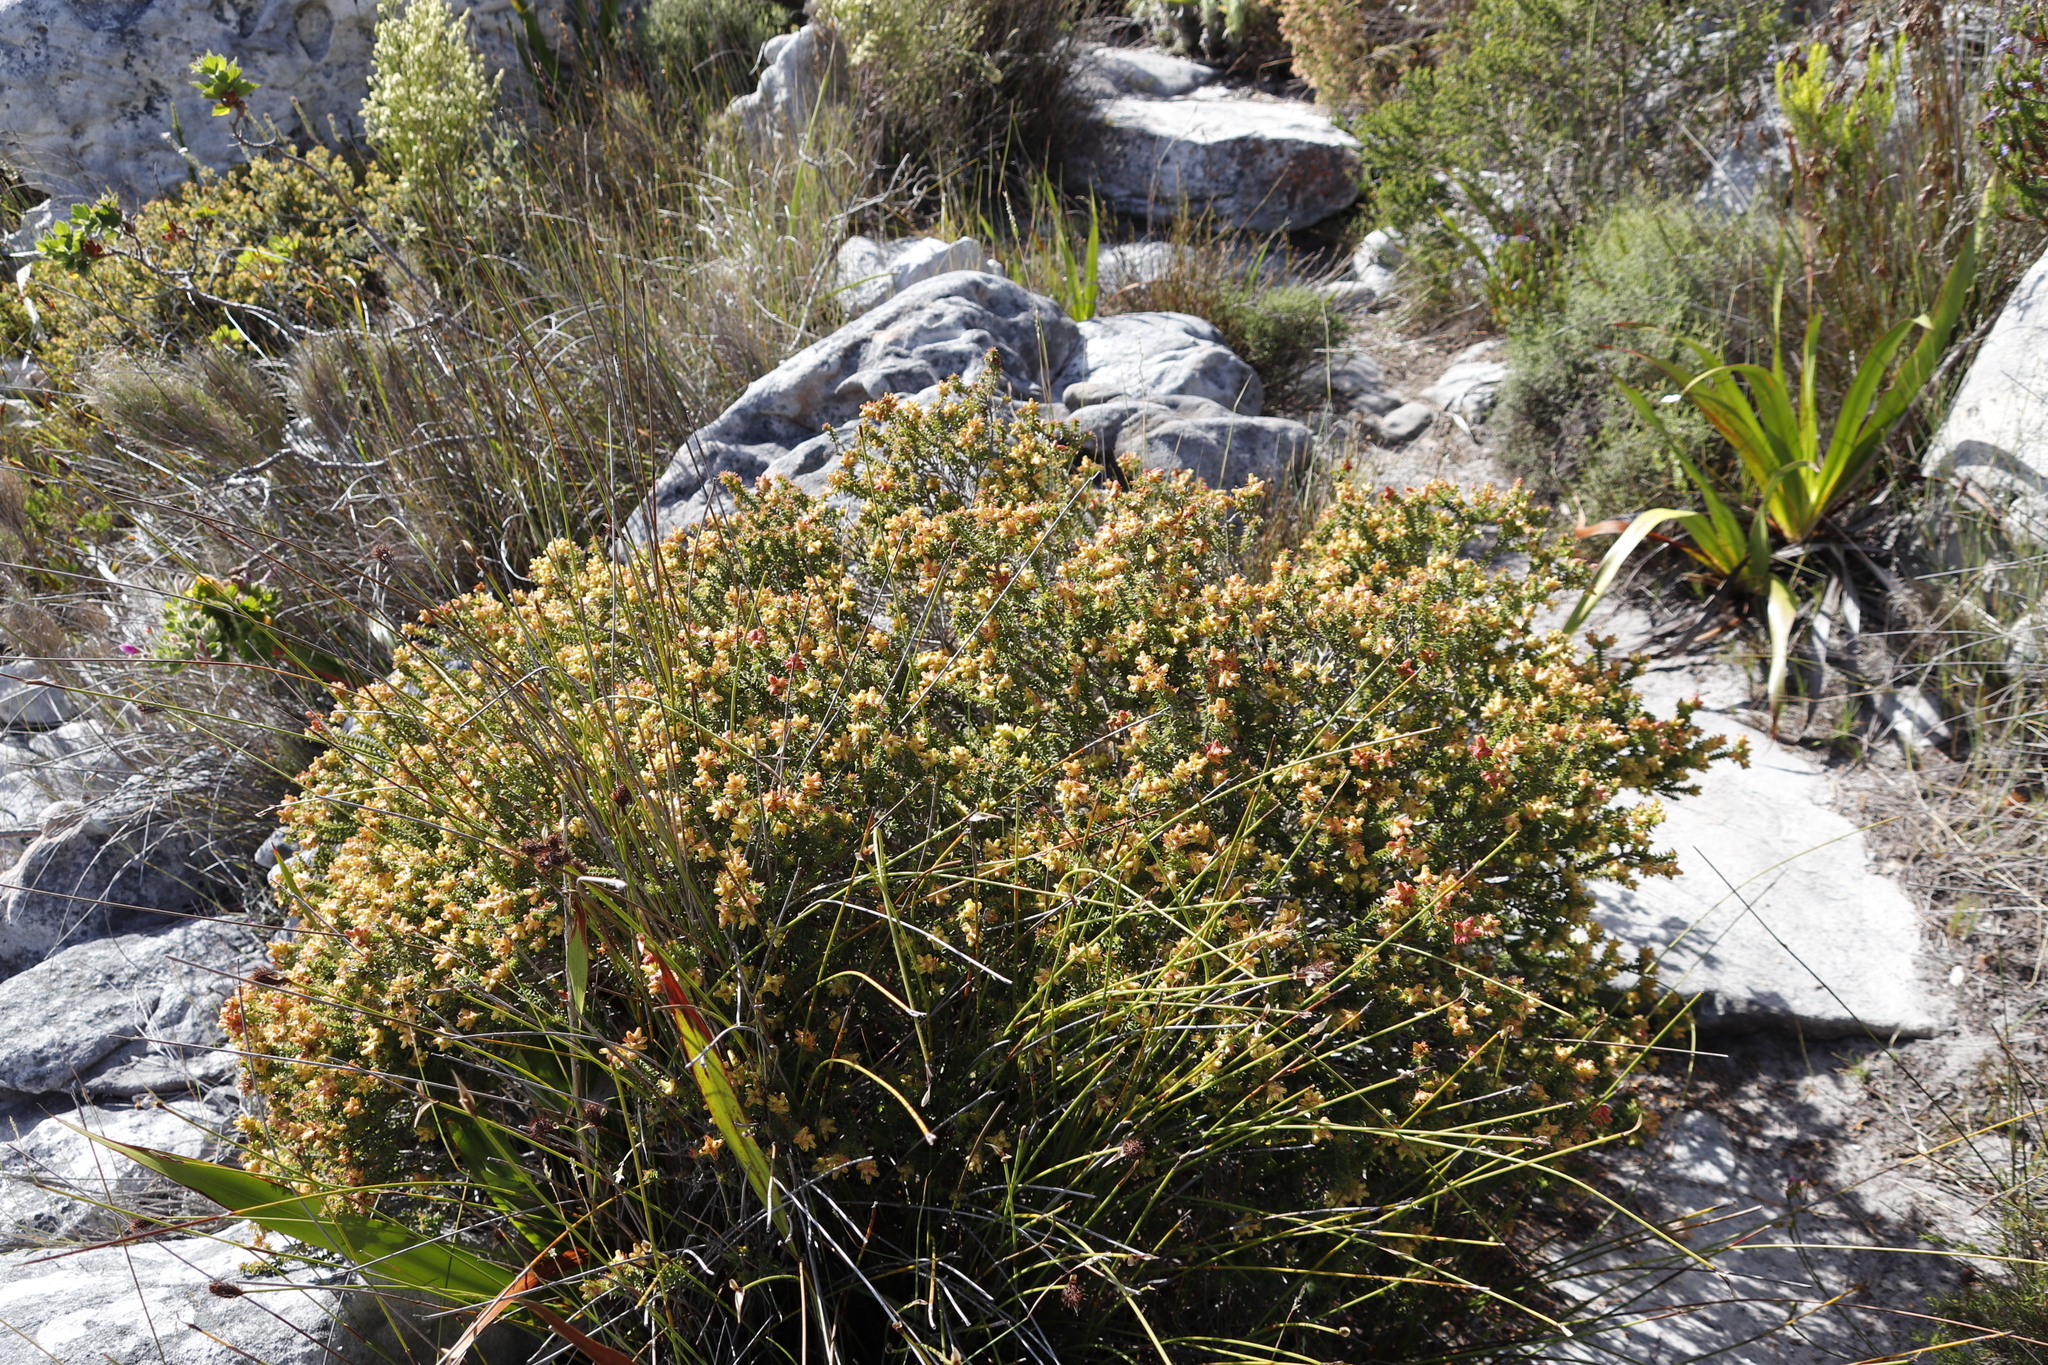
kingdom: Plantae
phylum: Tracheophyta
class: Magnoliopsida
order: Myrtales
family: Penaeaceae
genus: Penaea
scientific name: Penaea mucronata
